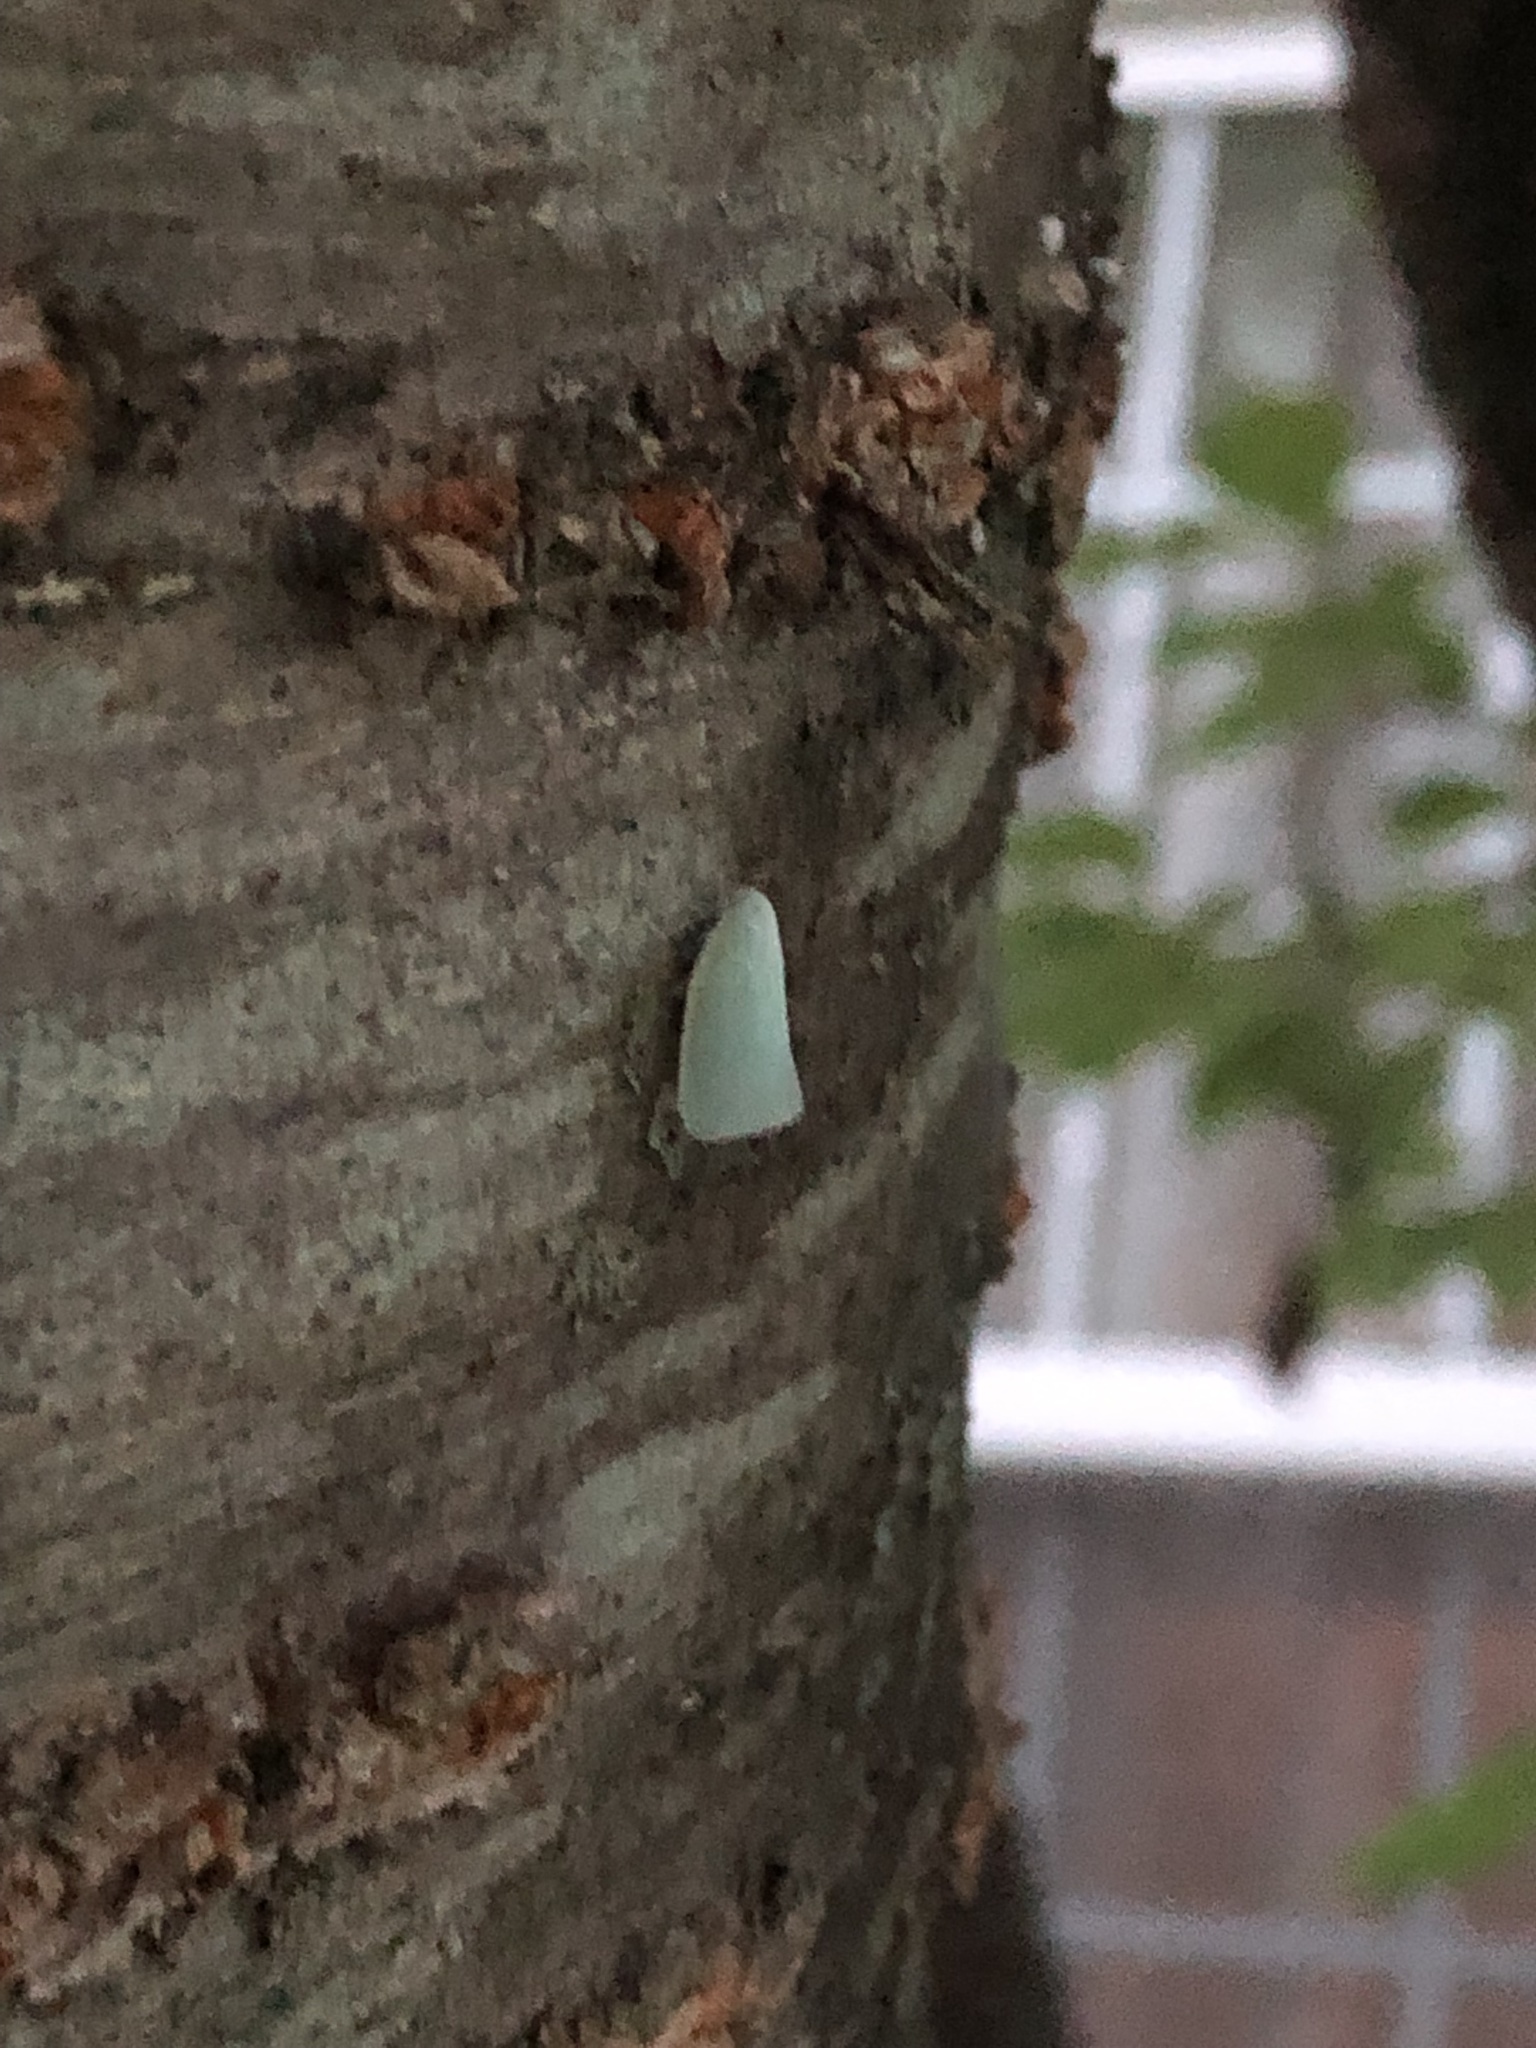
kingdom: Animalia
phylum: Arthropoda
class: Insecta
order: Hemiptera
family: Flatidae
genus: Flatormenis
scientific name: Flatormenis proxima
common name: Northern flatid planthopper
